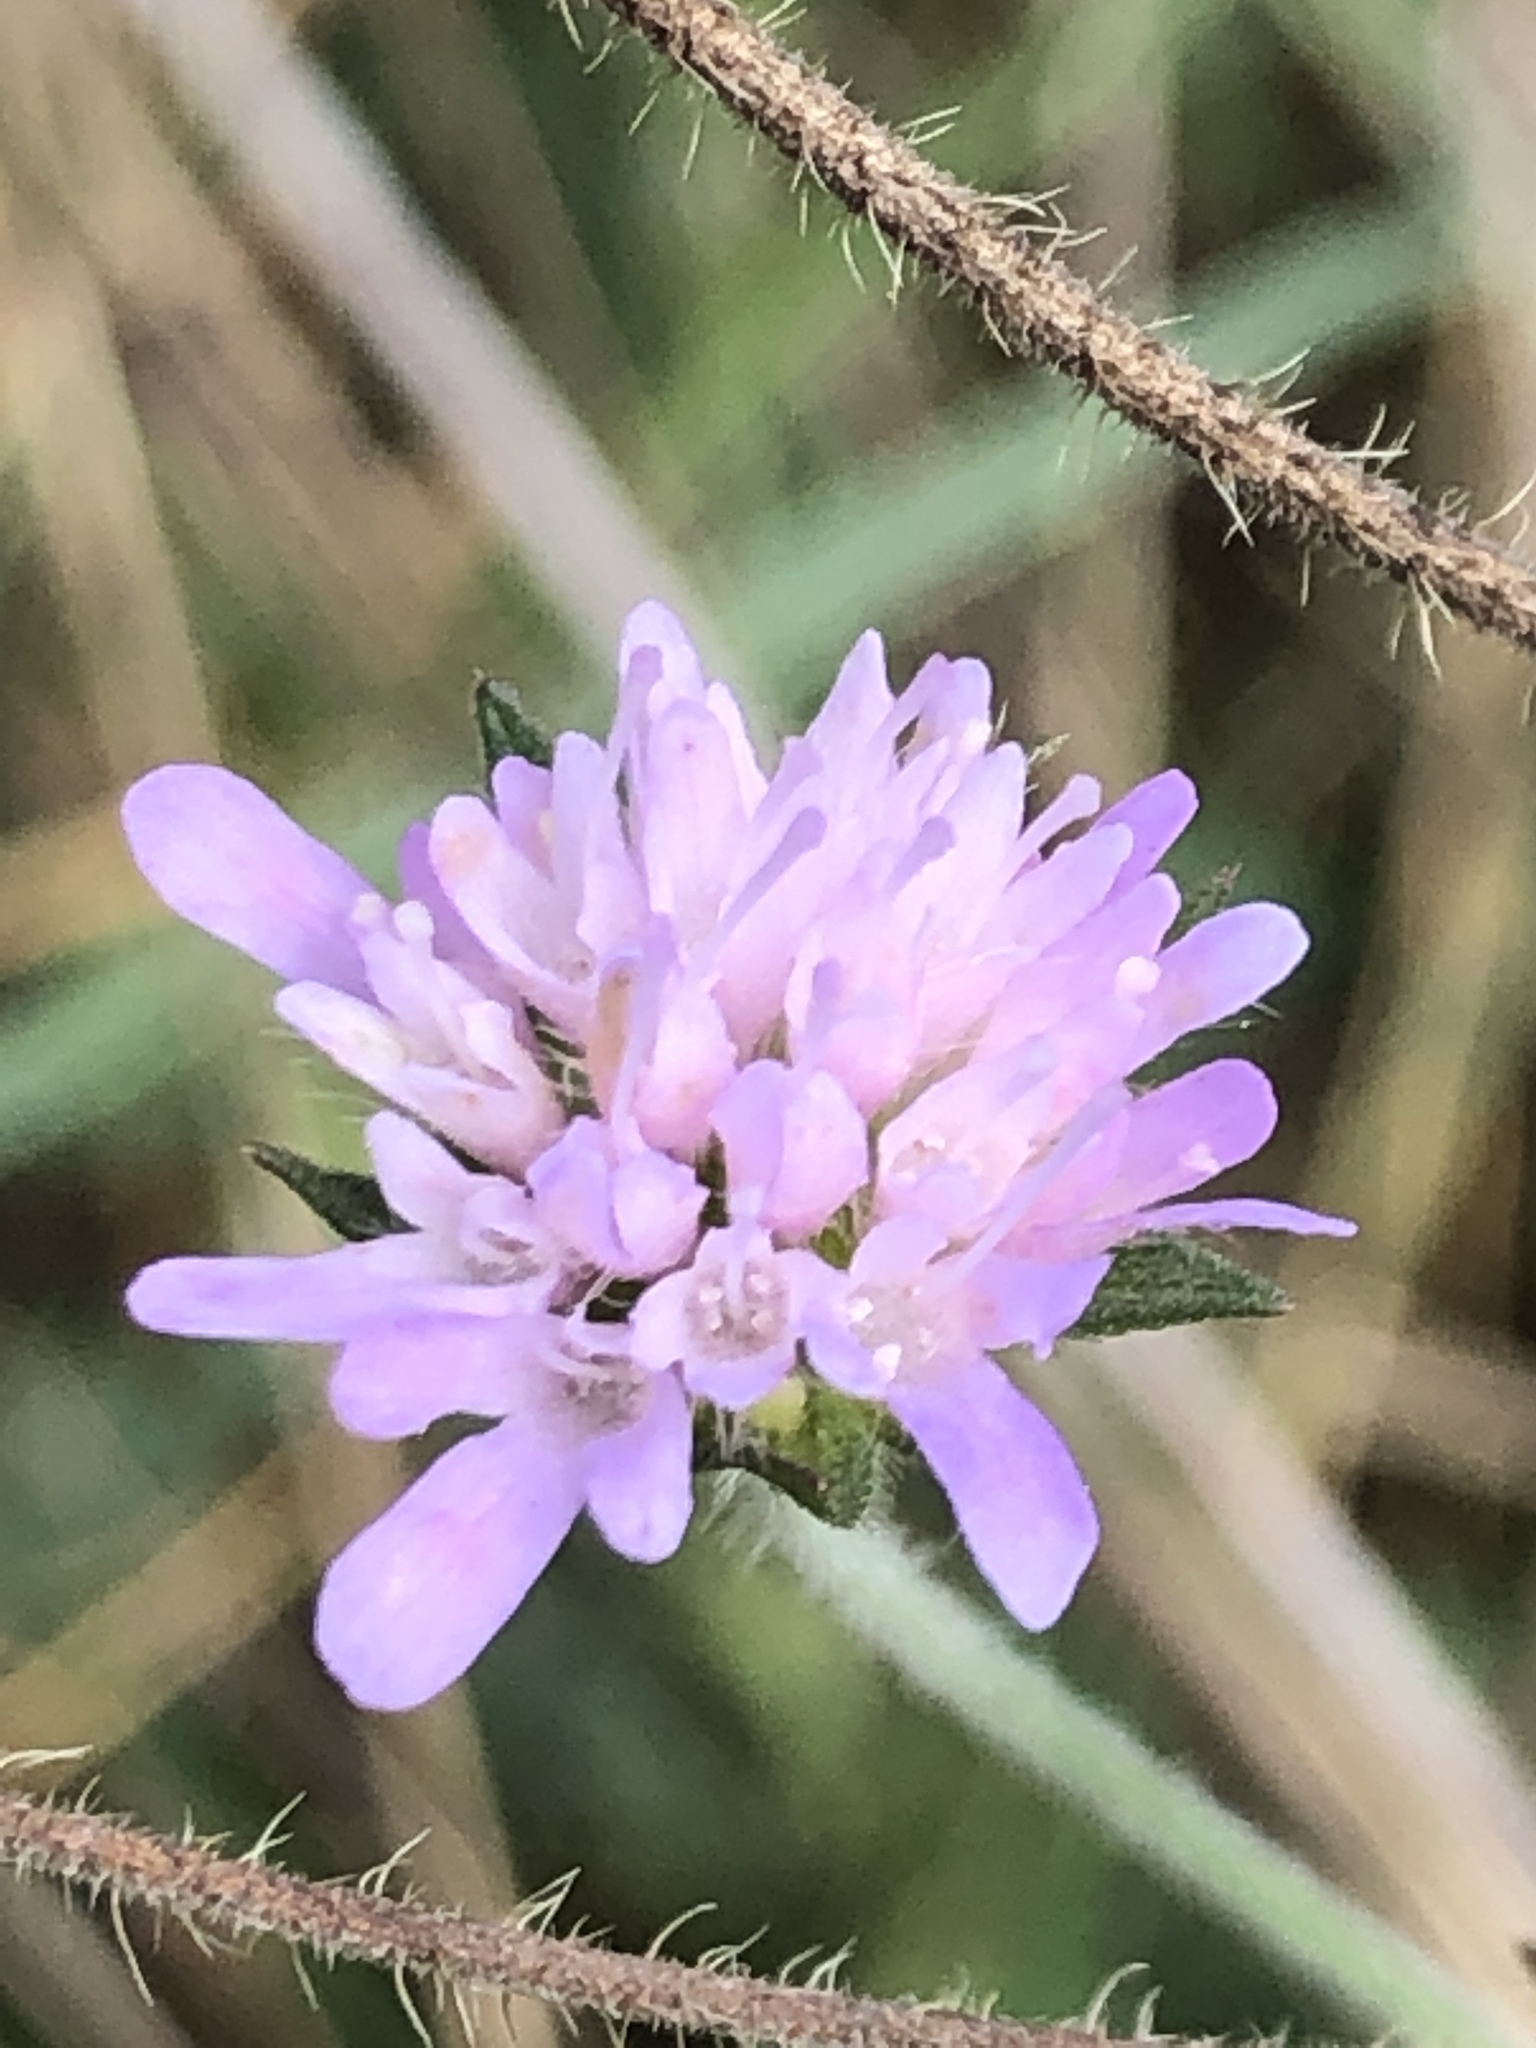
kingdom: Plantae
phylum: Tracheophyta
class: Magnoliopsida
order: Dipsacales
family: Caprifoliaceae
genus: Knautia
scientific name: Knautia arvensis
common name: Field scabiosa
